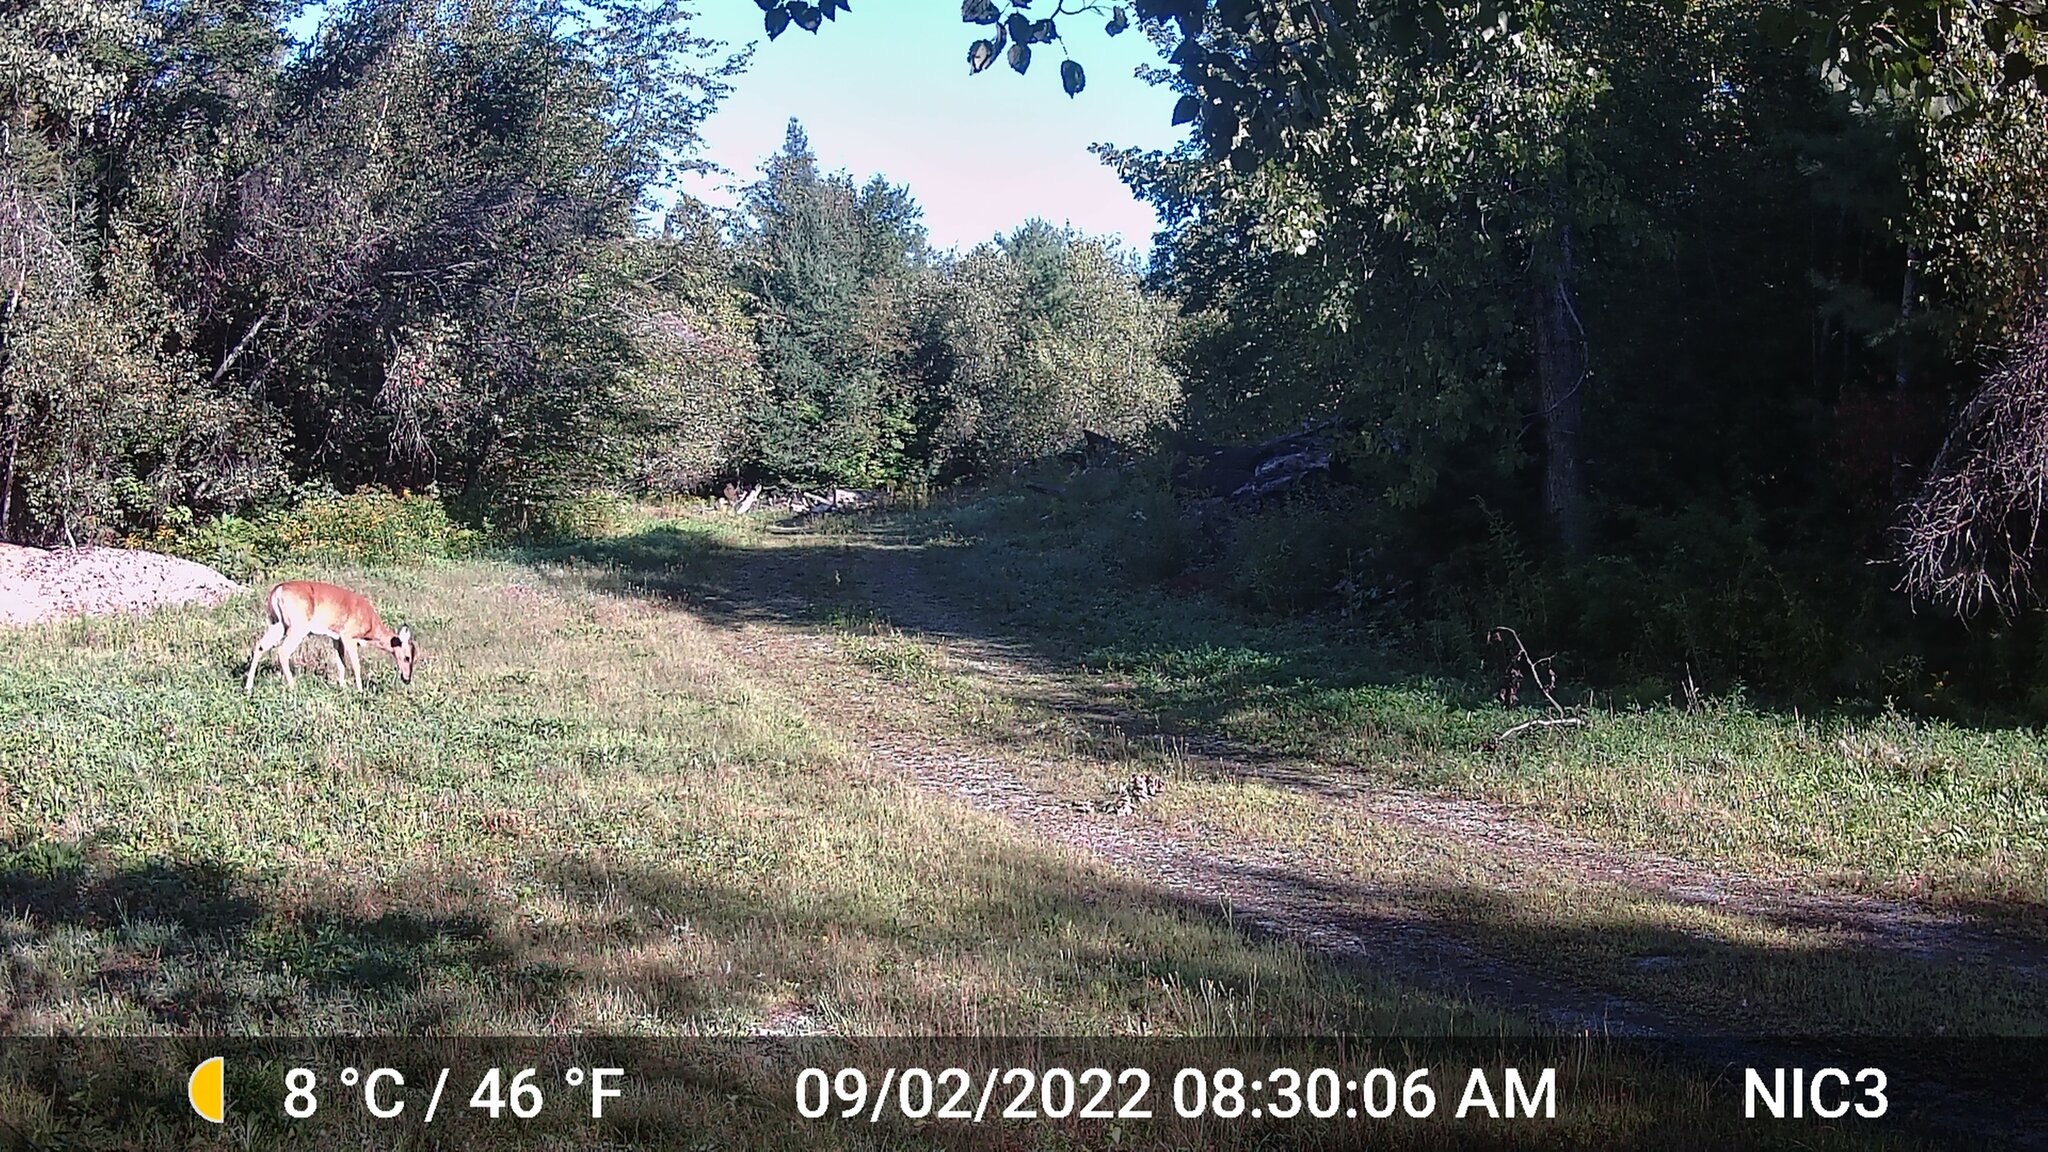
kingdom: Animalia
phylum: Chordata
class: Mammalia
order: Artiodactyla
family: Cervidae
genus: Odocoileus
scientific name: Odocoileus virginianus
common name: White-tailed deer
